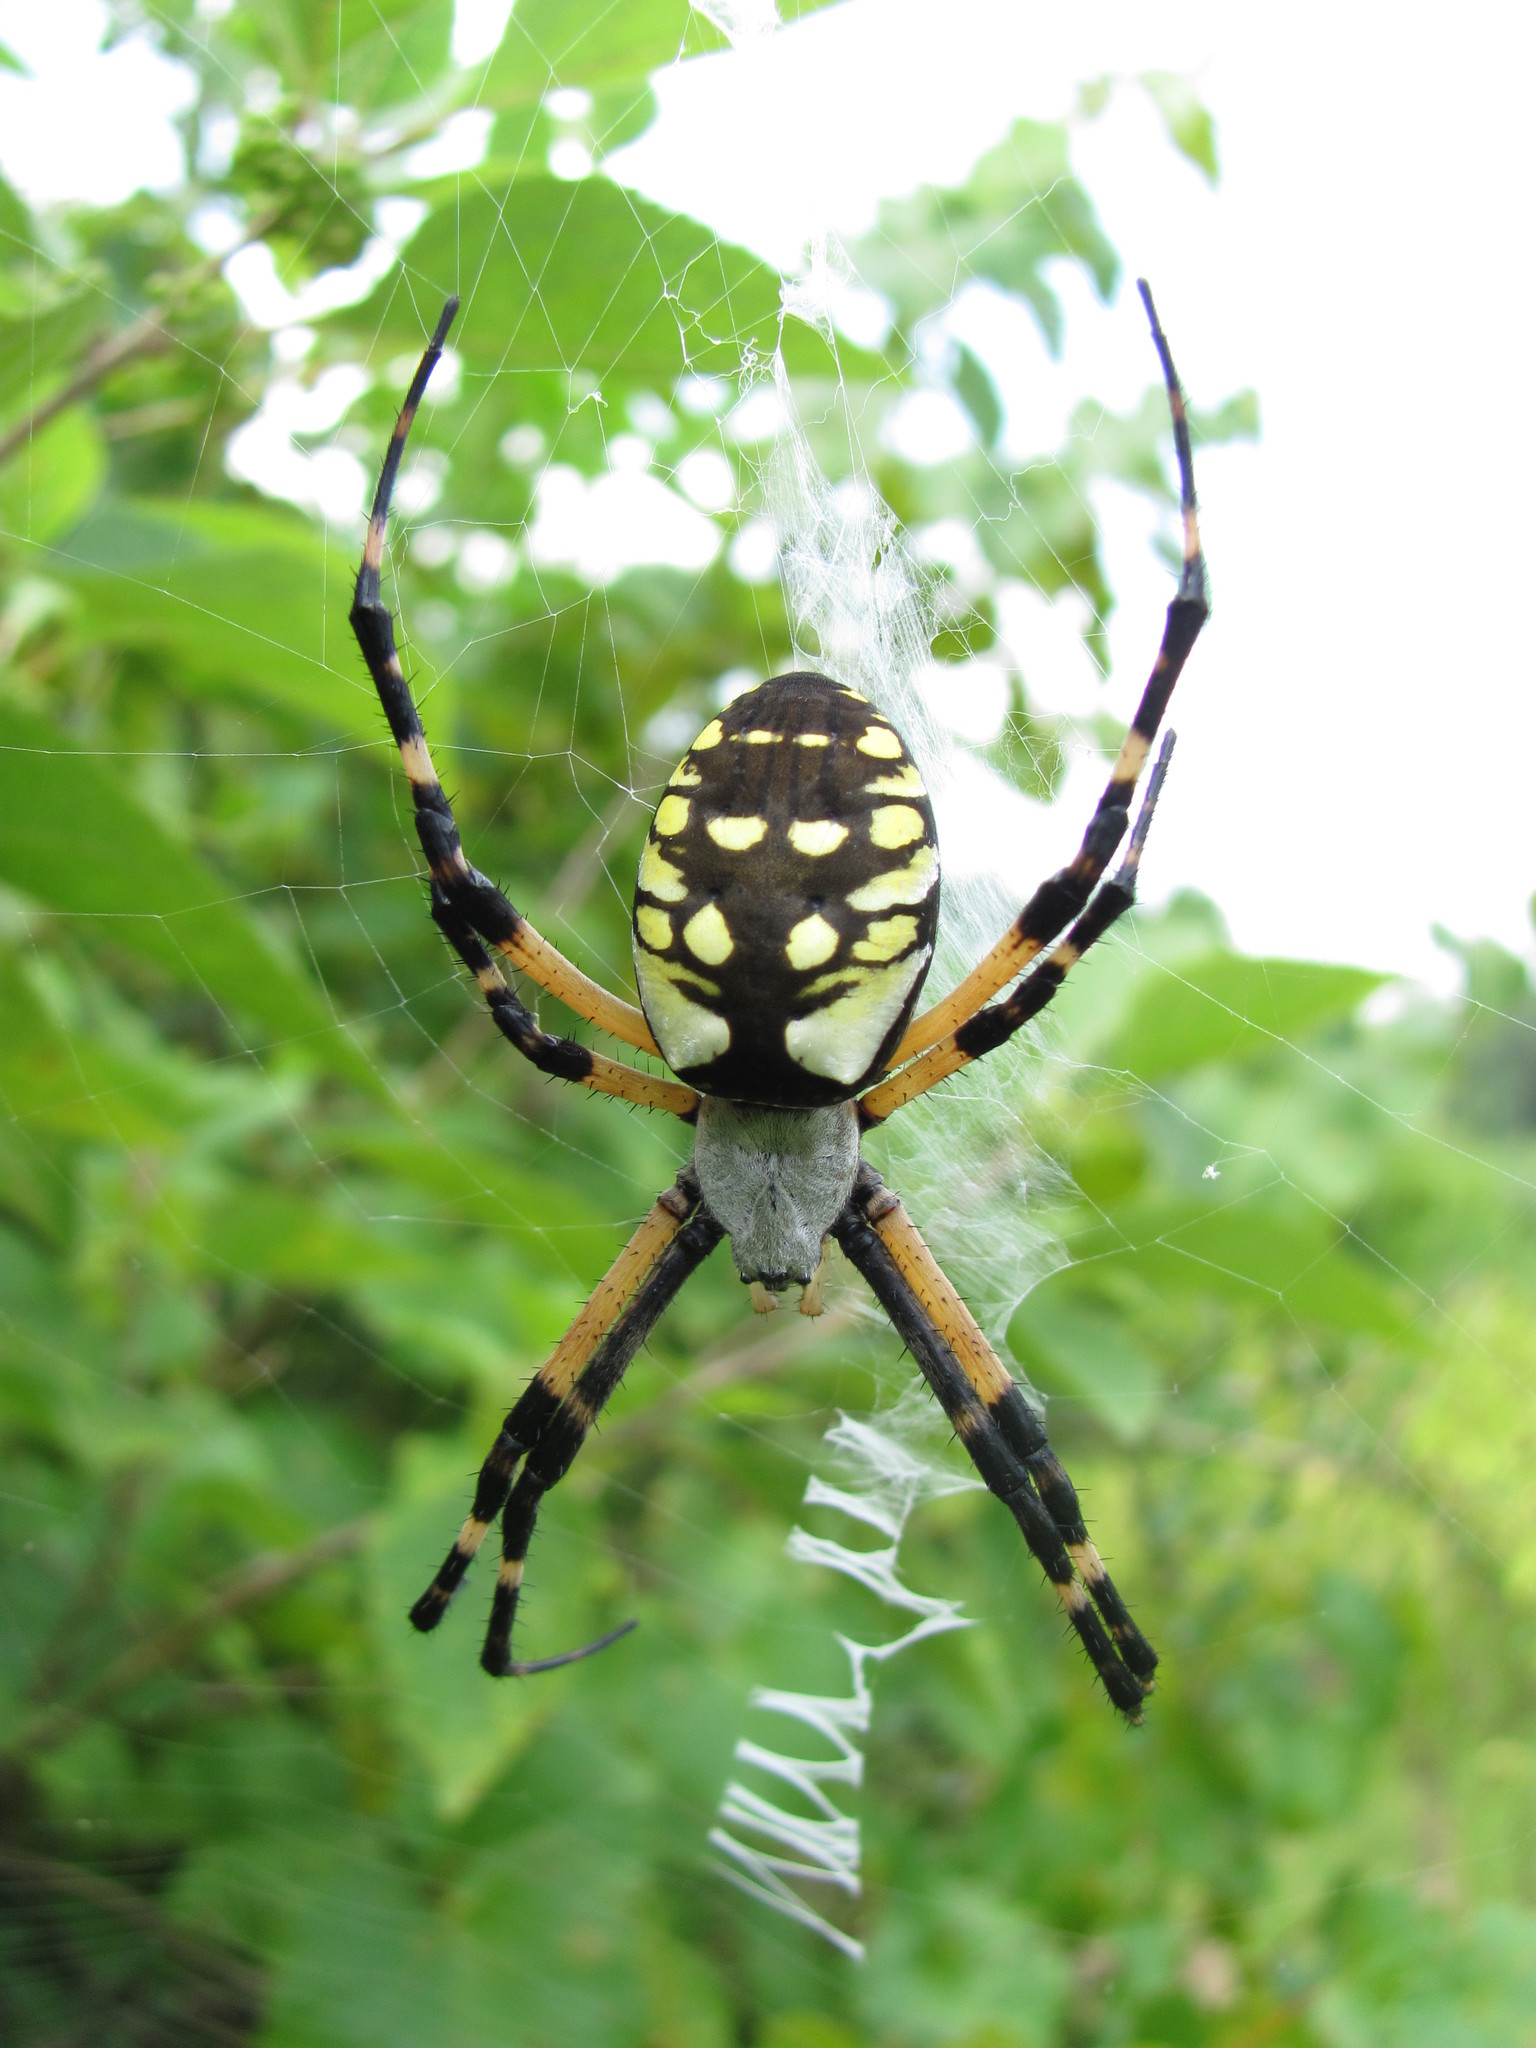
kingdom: Animalia
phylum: Arthropoda
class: Arachnida
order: Araneae
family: Araneidae
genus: Argiope
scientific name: Argiope aurantia
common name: Orb weavers
